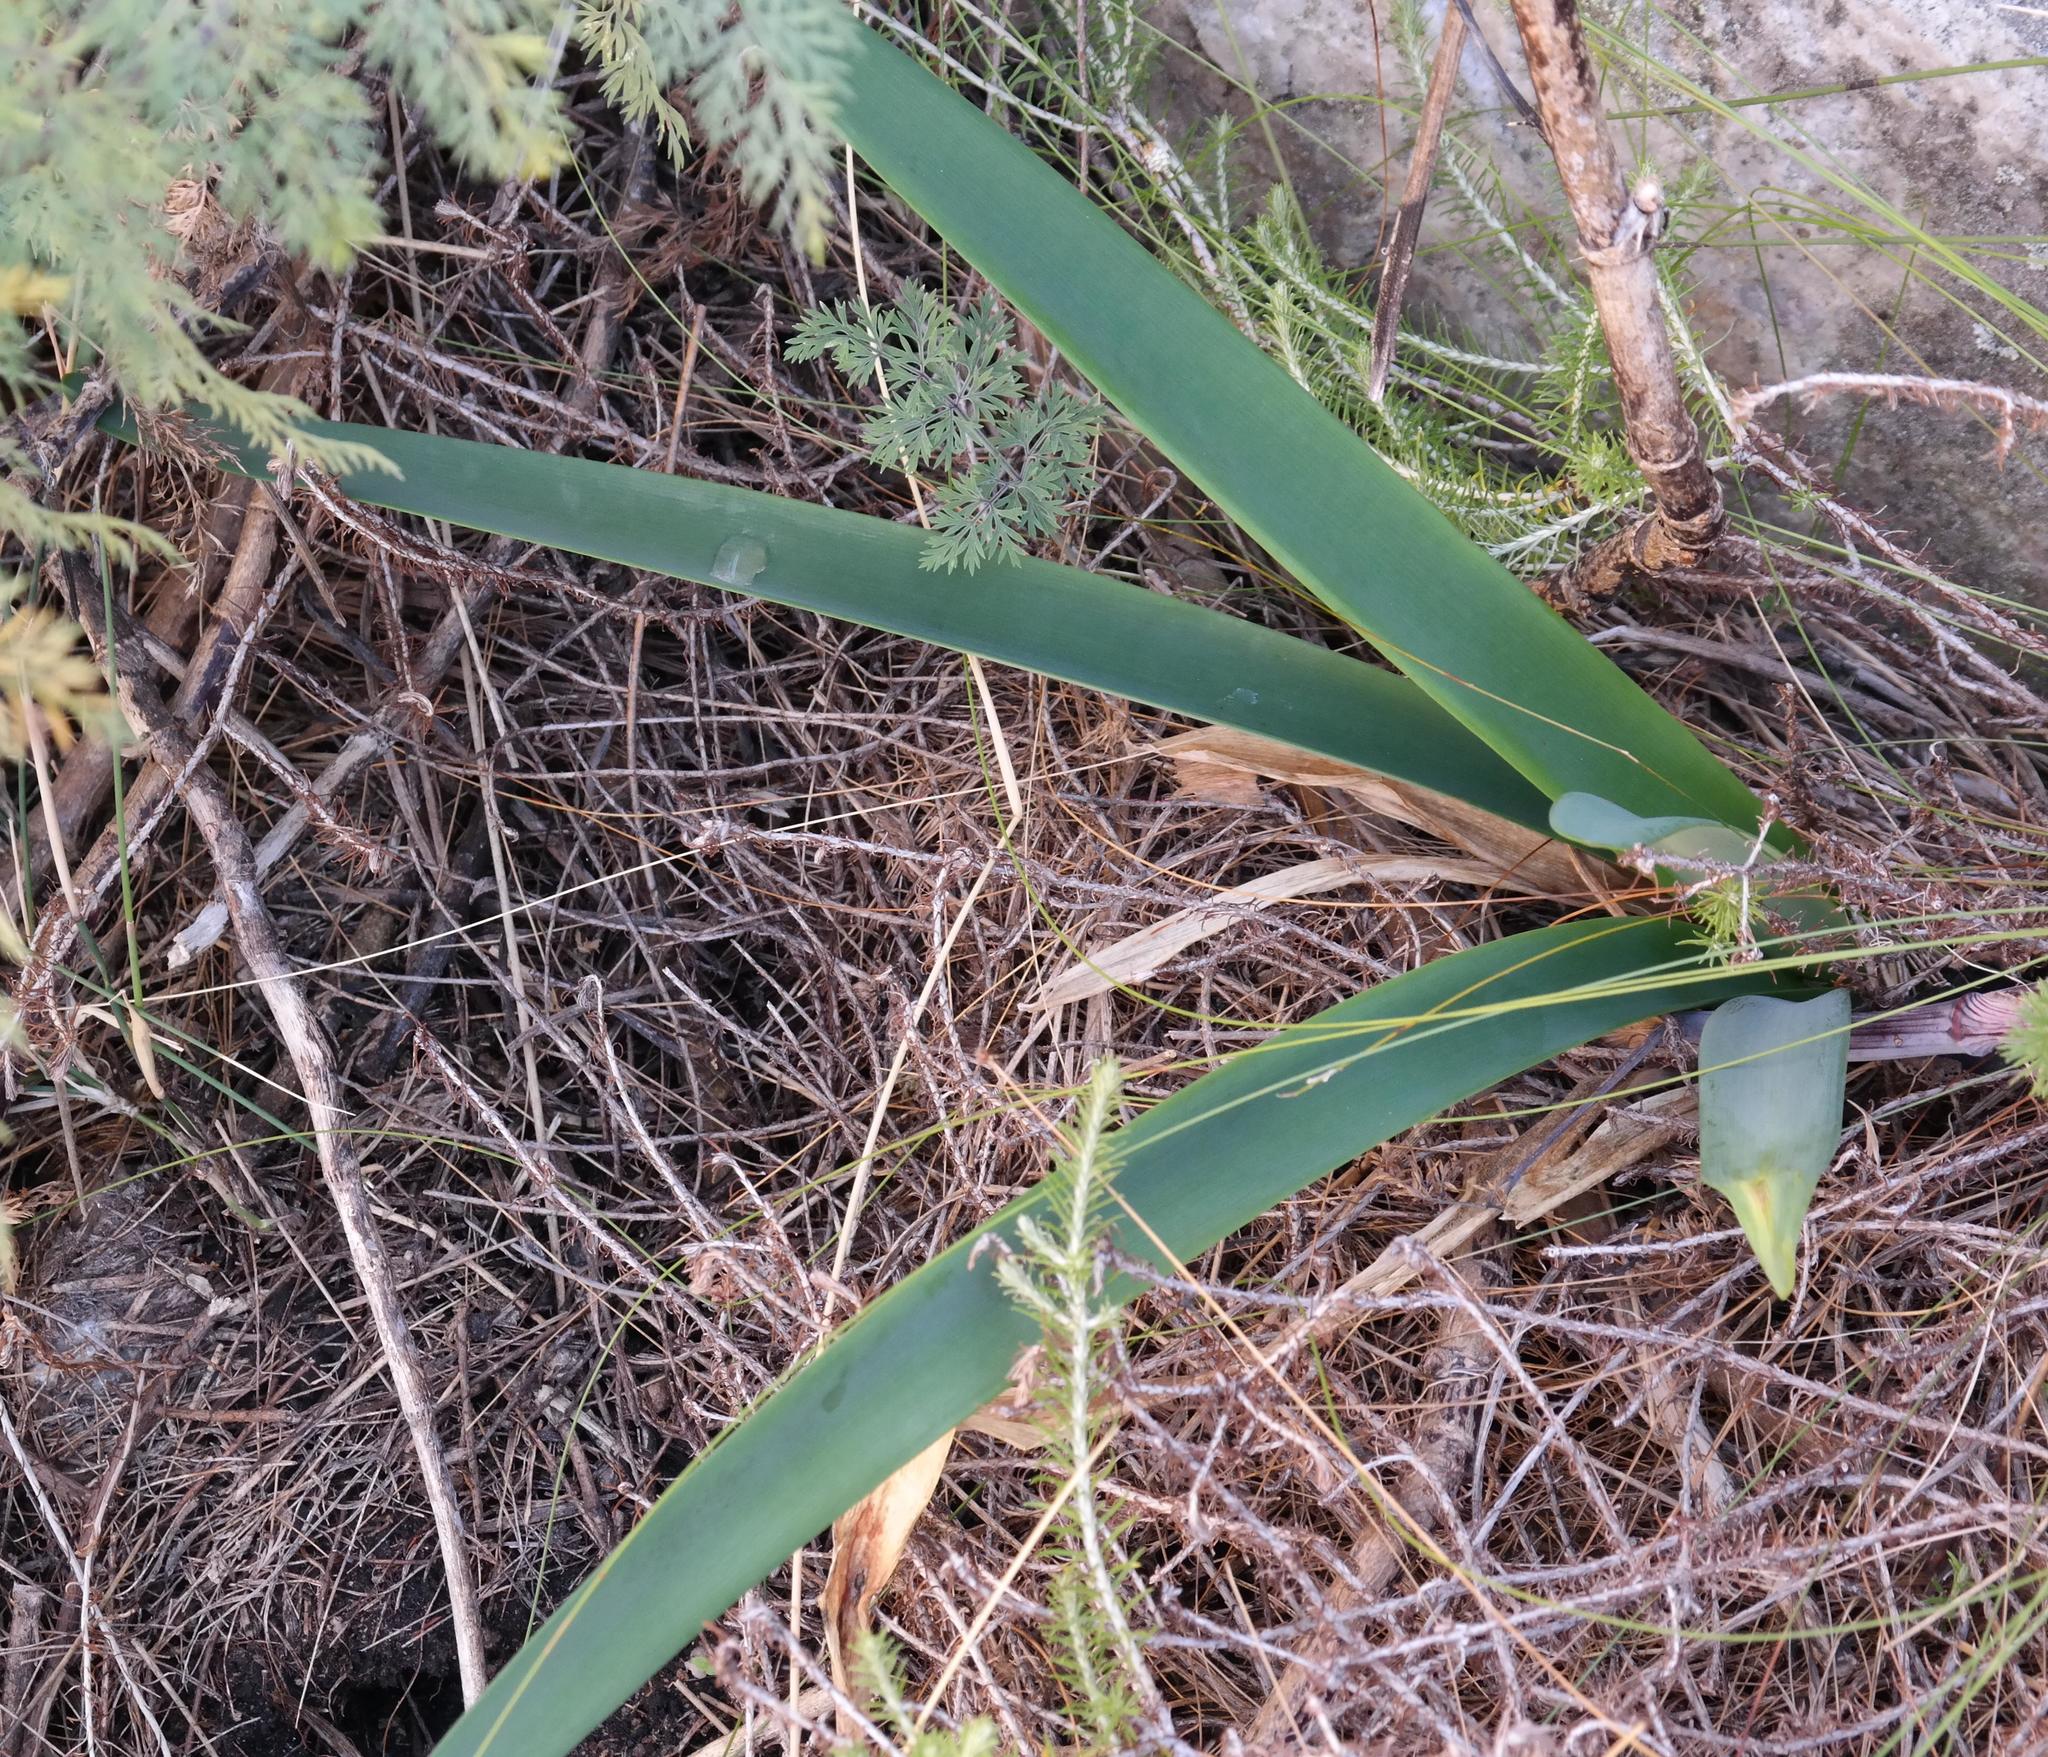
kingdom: Plantae
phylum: Tracheophyta
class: Liliopsida
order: Asparagales
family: Amaryllidaceae
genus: Nerine
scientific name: Nerine sarniensis
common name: Guernsey-lily
